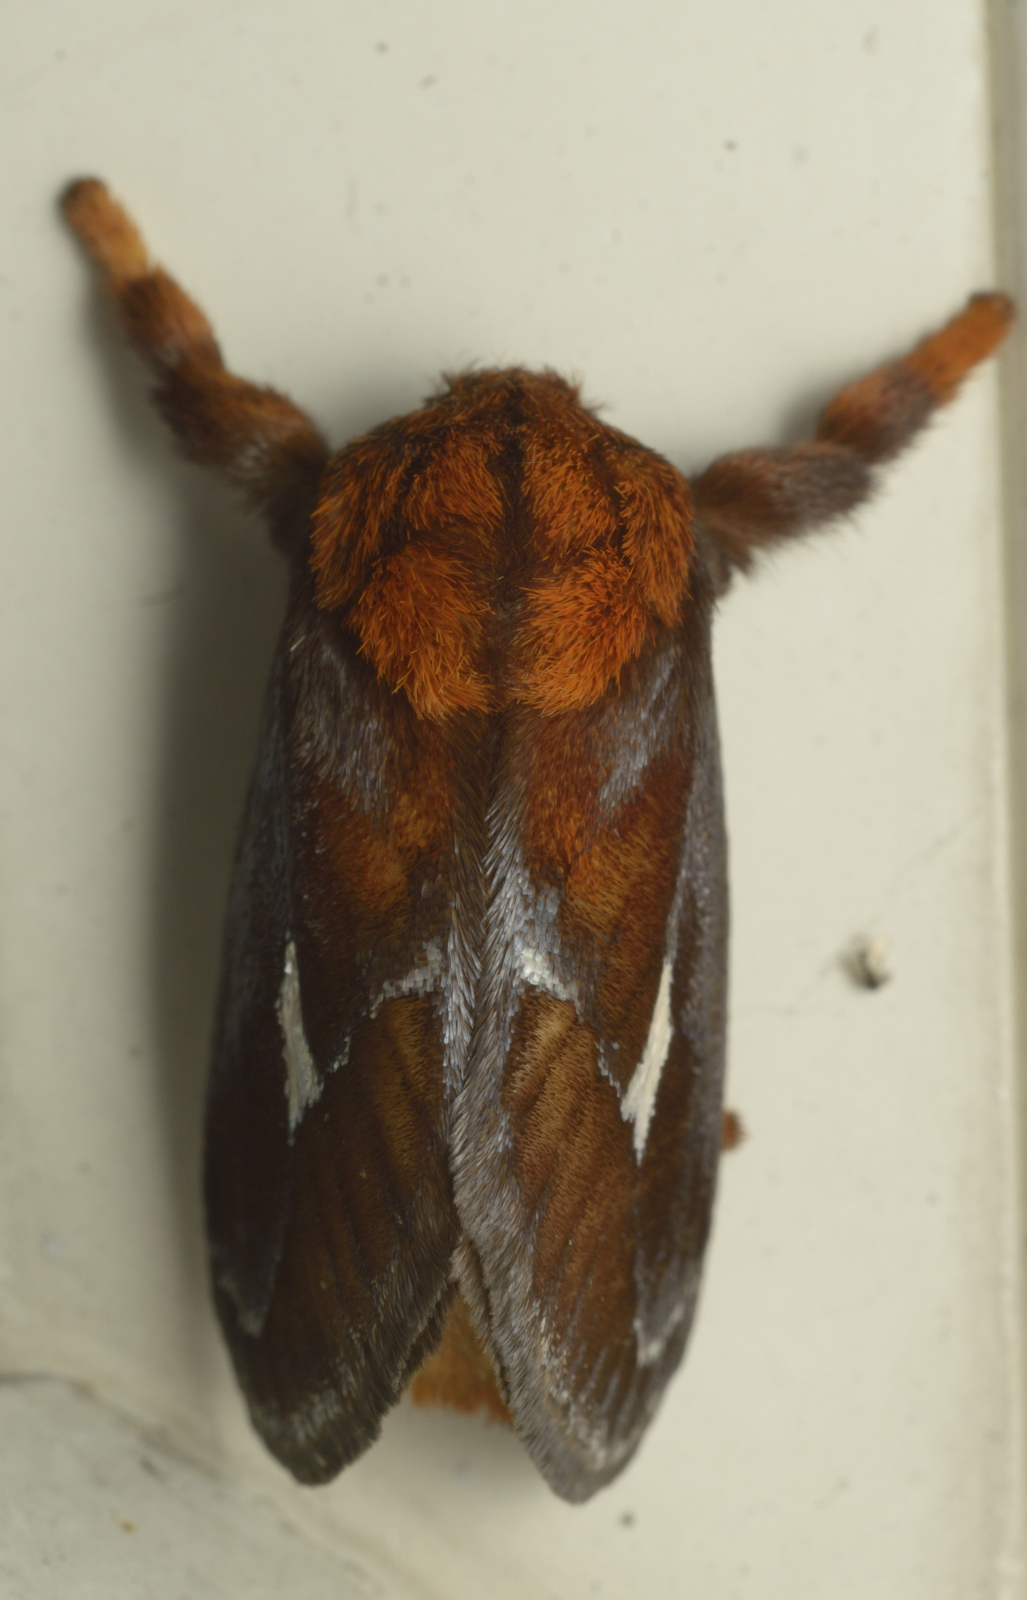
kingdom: Animalia
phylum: Arthropoda
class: Insecta
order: Lepidoptera
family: Limacodidae
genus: Miresa
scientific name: Miresa pyronota
